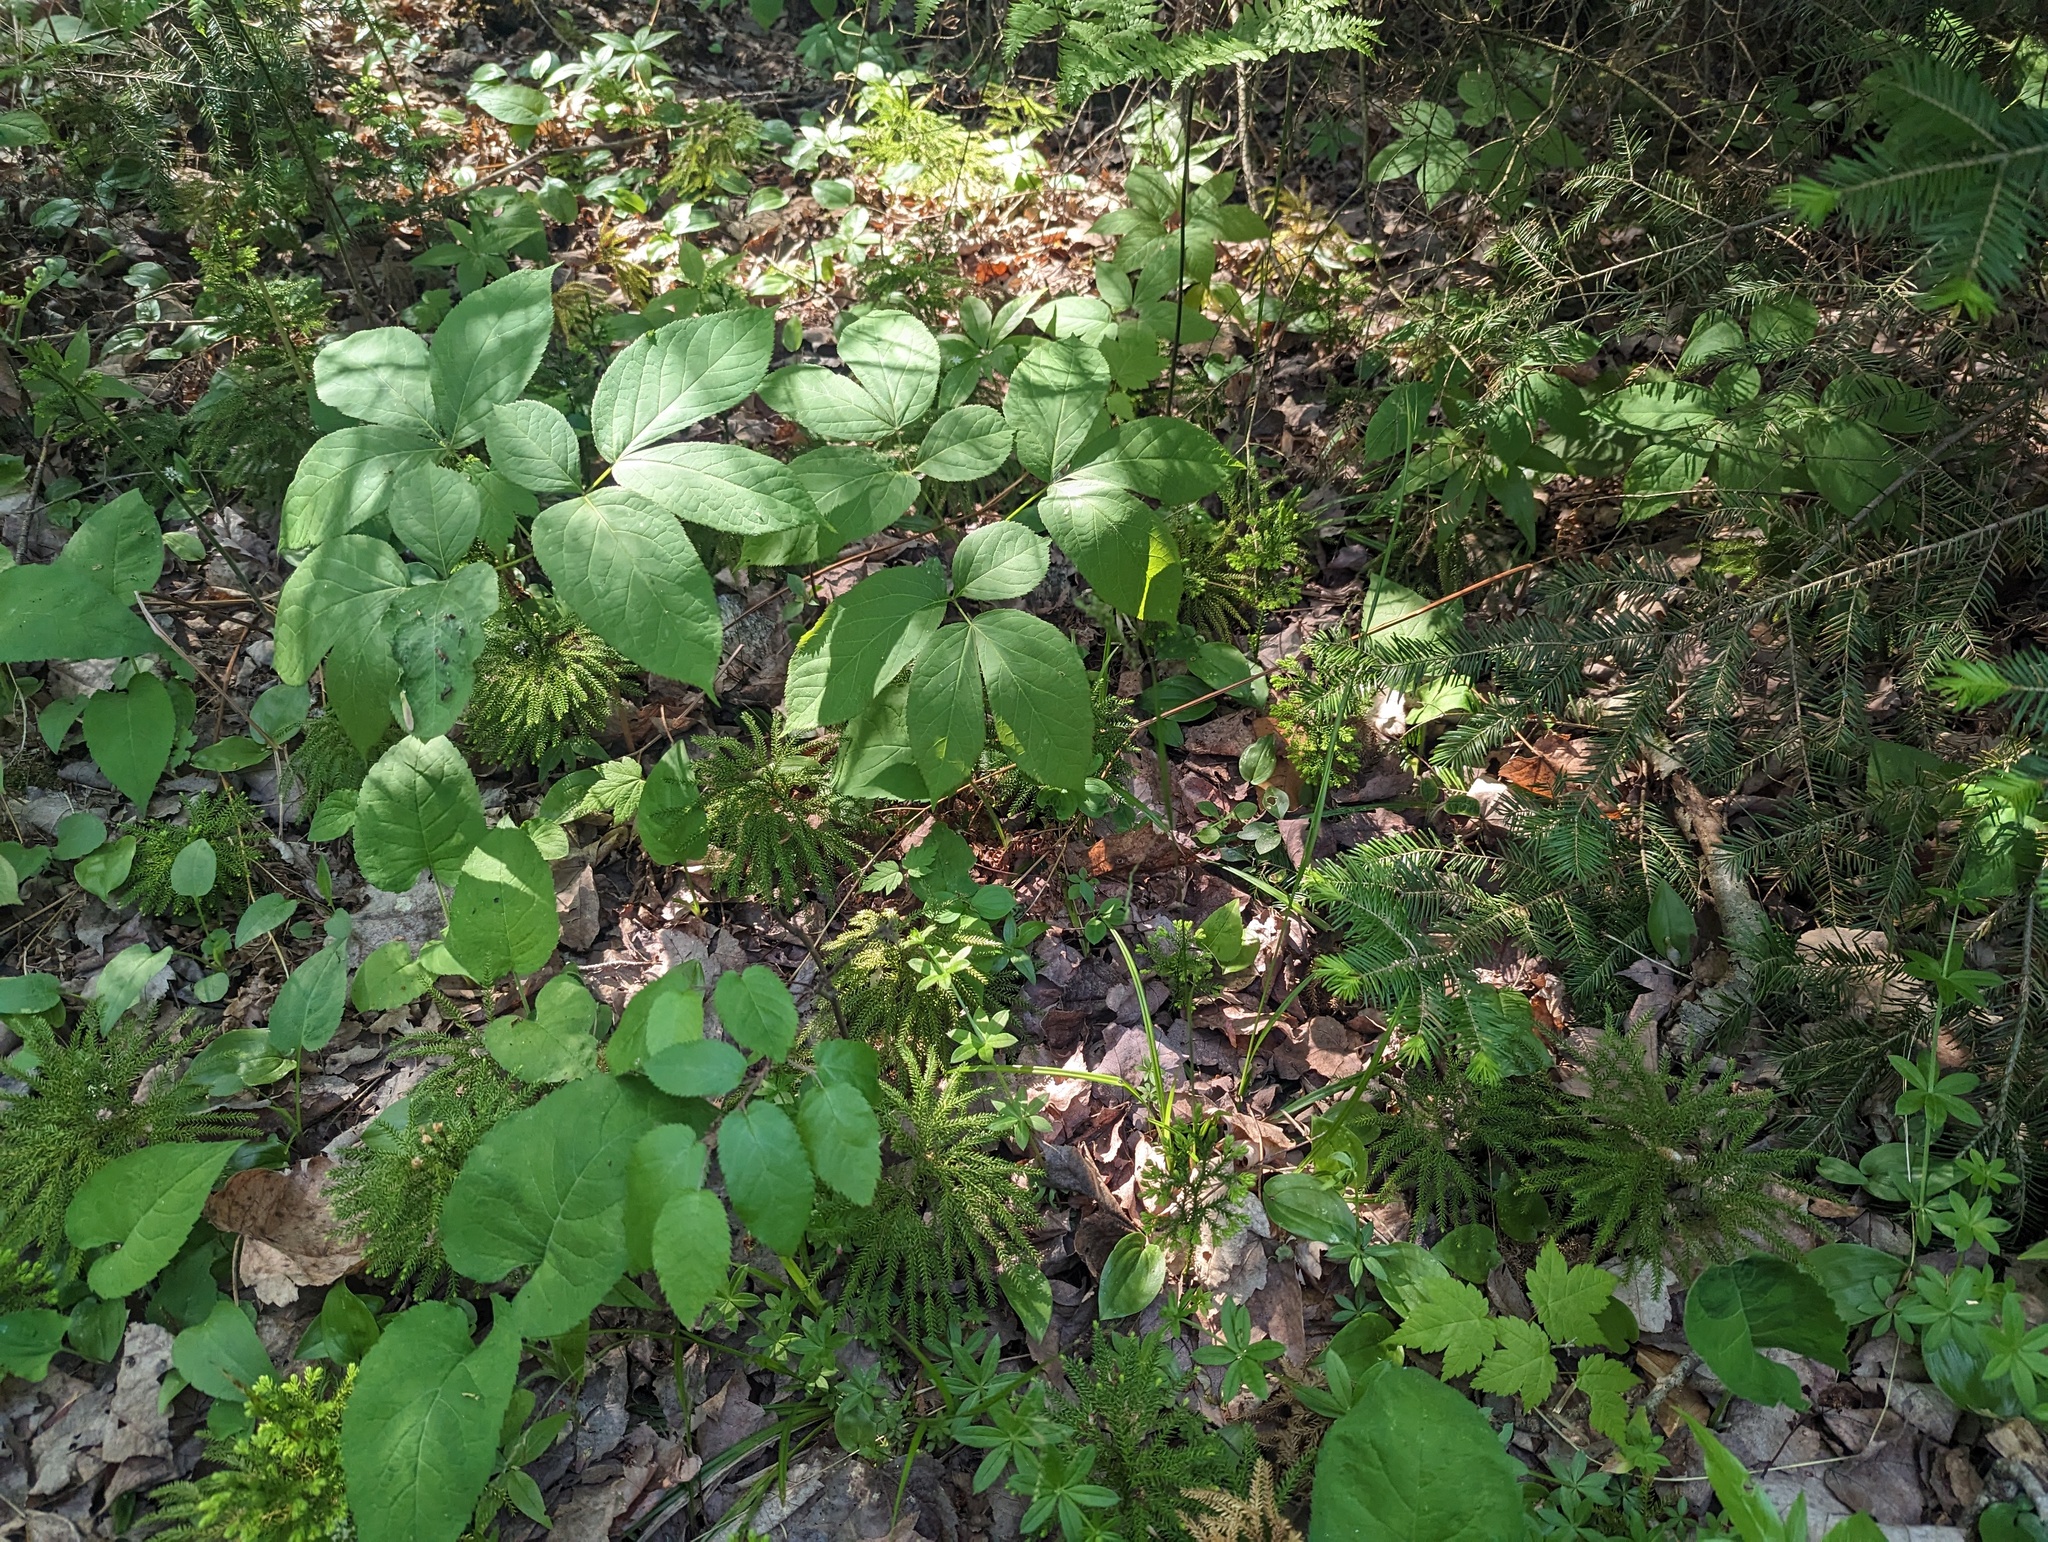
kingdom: Plantae
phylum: Tracheophyta
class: Lycopodiopsida
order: Lycopodiales
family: Lycopodiaceae
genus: Dendrolycopodium
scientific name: Dendrolycopodium dendroideum
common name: Northern tree-clubmoss
